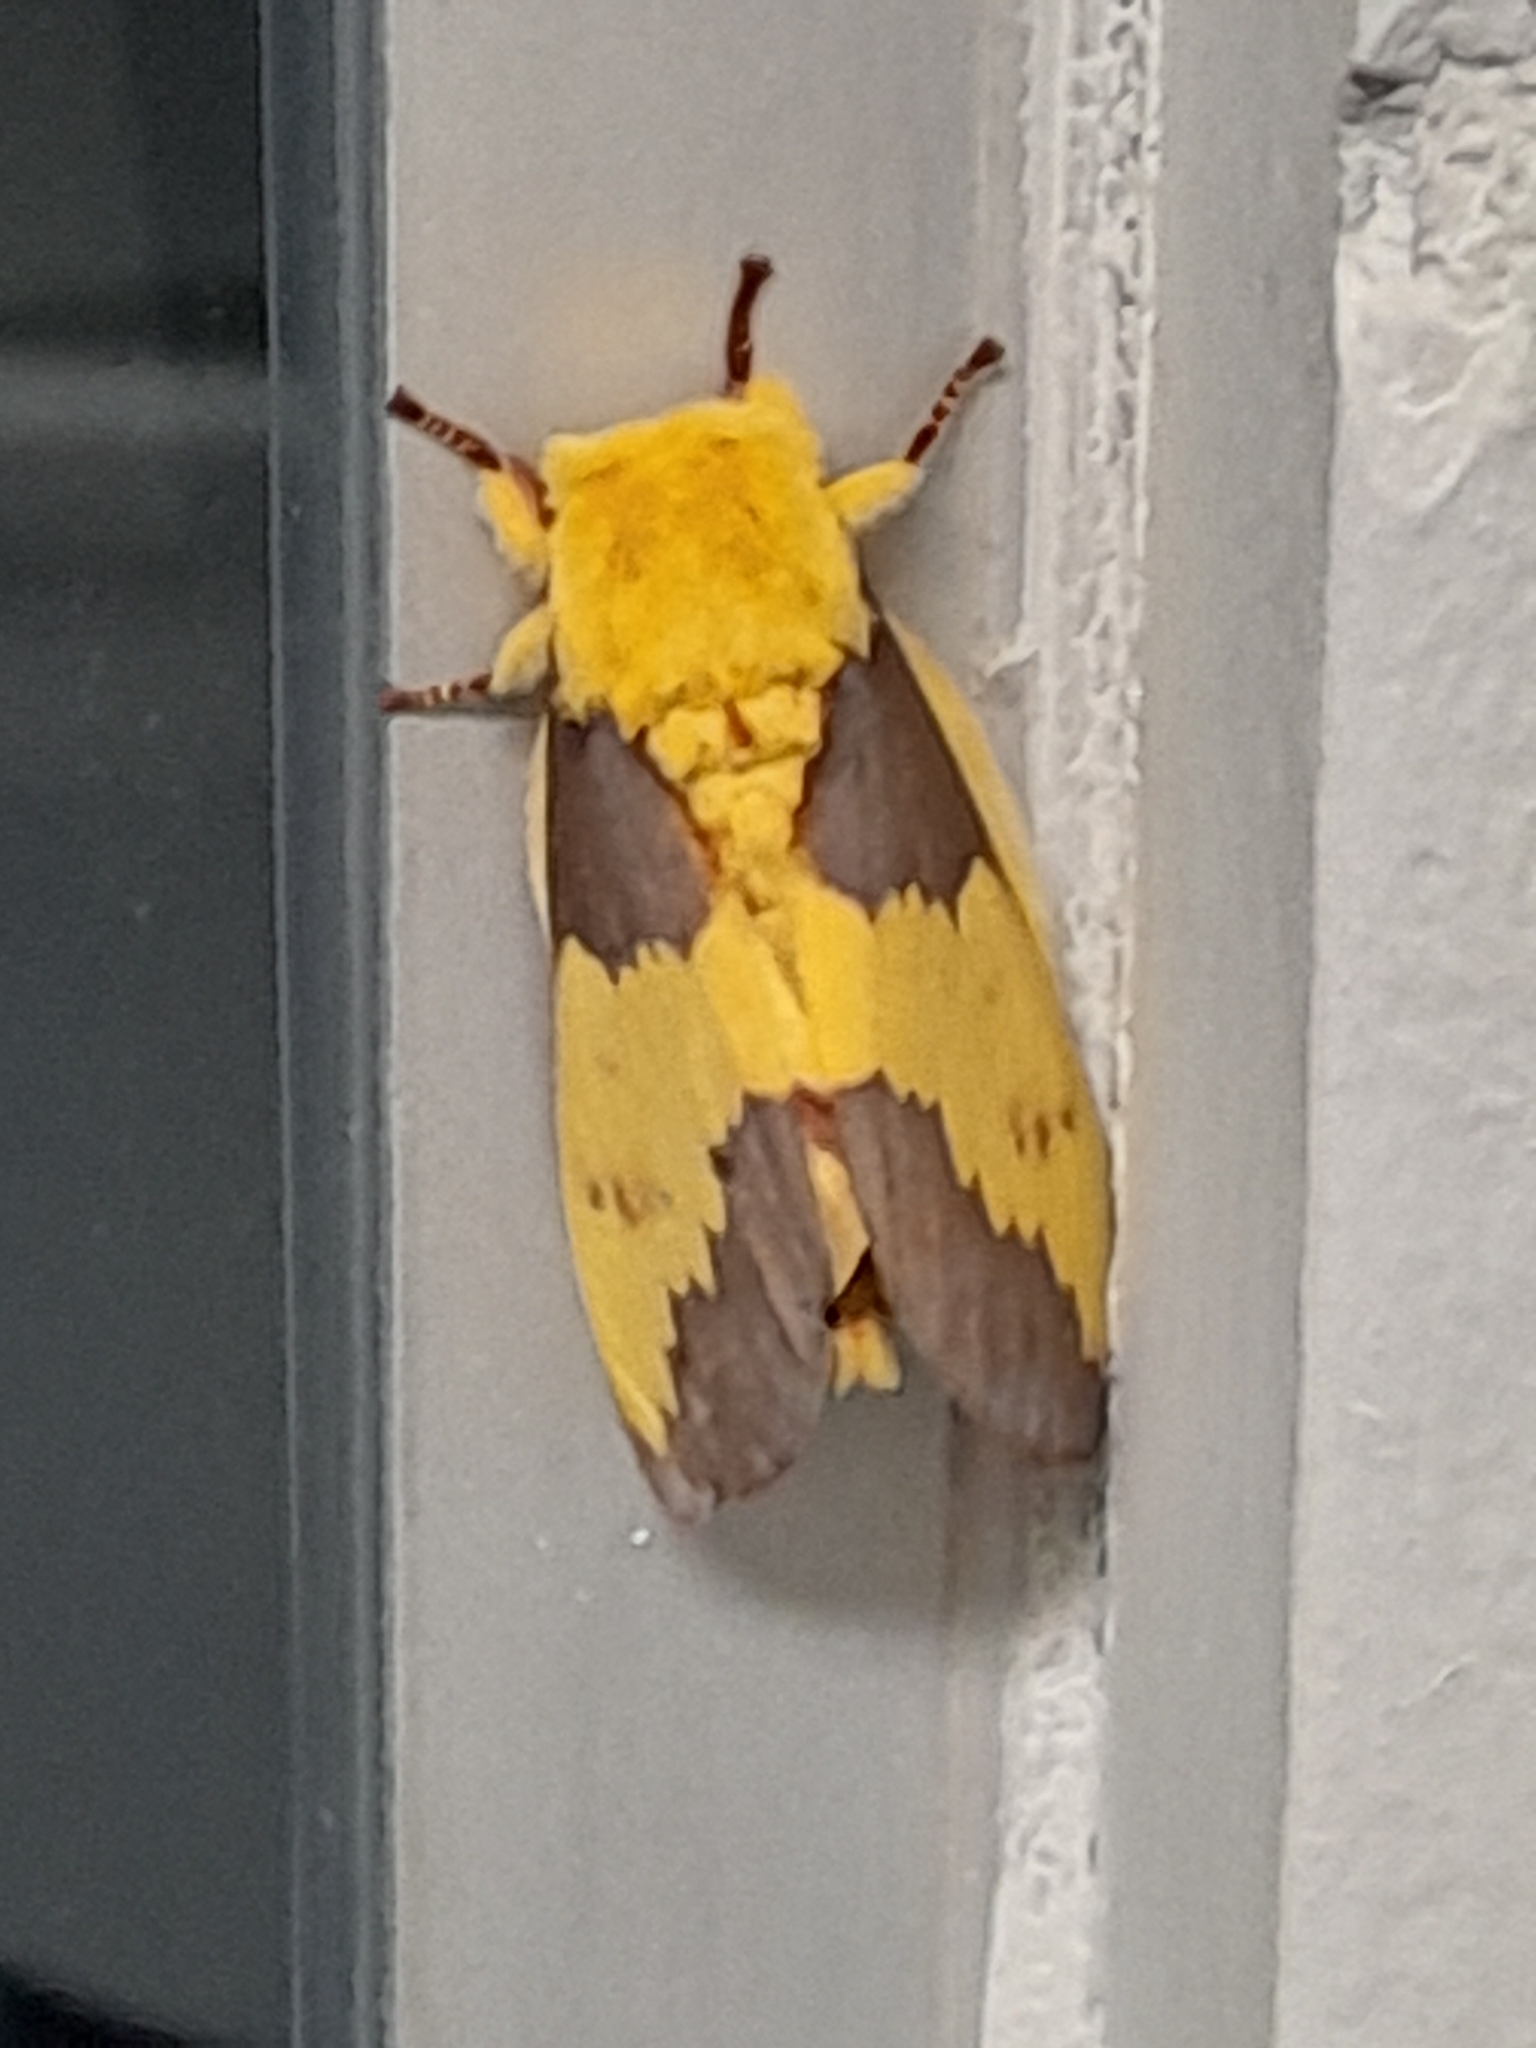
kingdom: Animalia
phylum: Arthropoda
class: Insecta
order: Lepidoptera
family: Saturniidae
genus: Citheronia
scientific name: Citheronia laocoon
